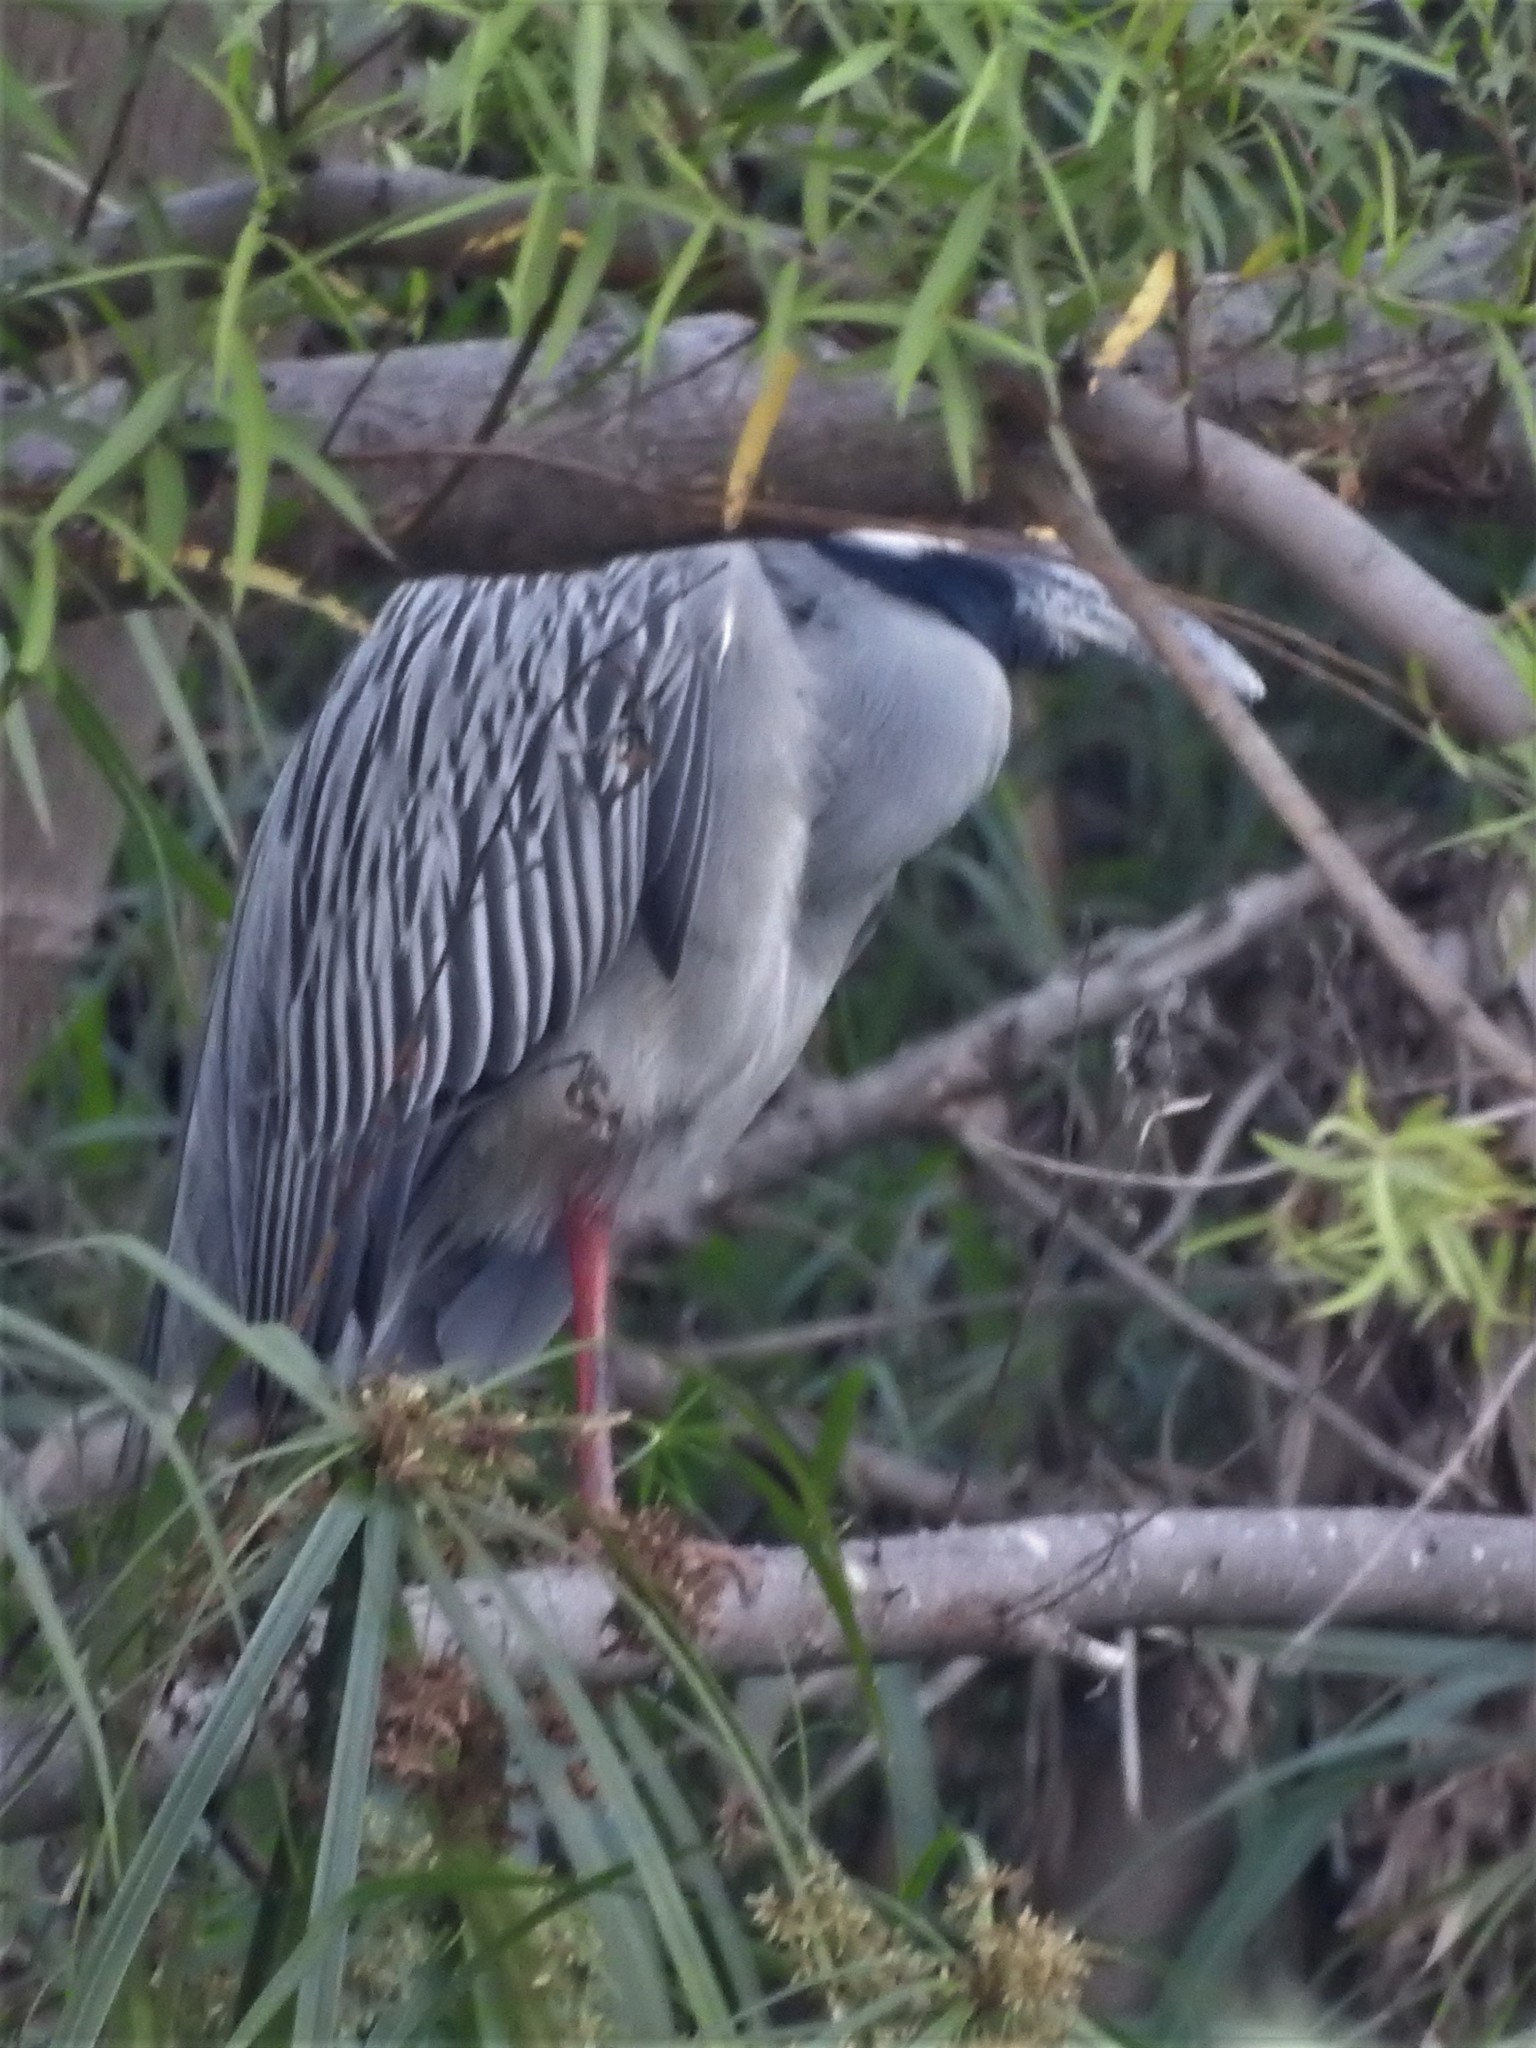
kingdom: Animalia
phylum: Chordata
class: Aves
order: Pelecaniformes
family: Ardeidae
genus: Nyctanassa
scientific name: Nyctanassa violacea
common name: Yellow-crowned night heron
